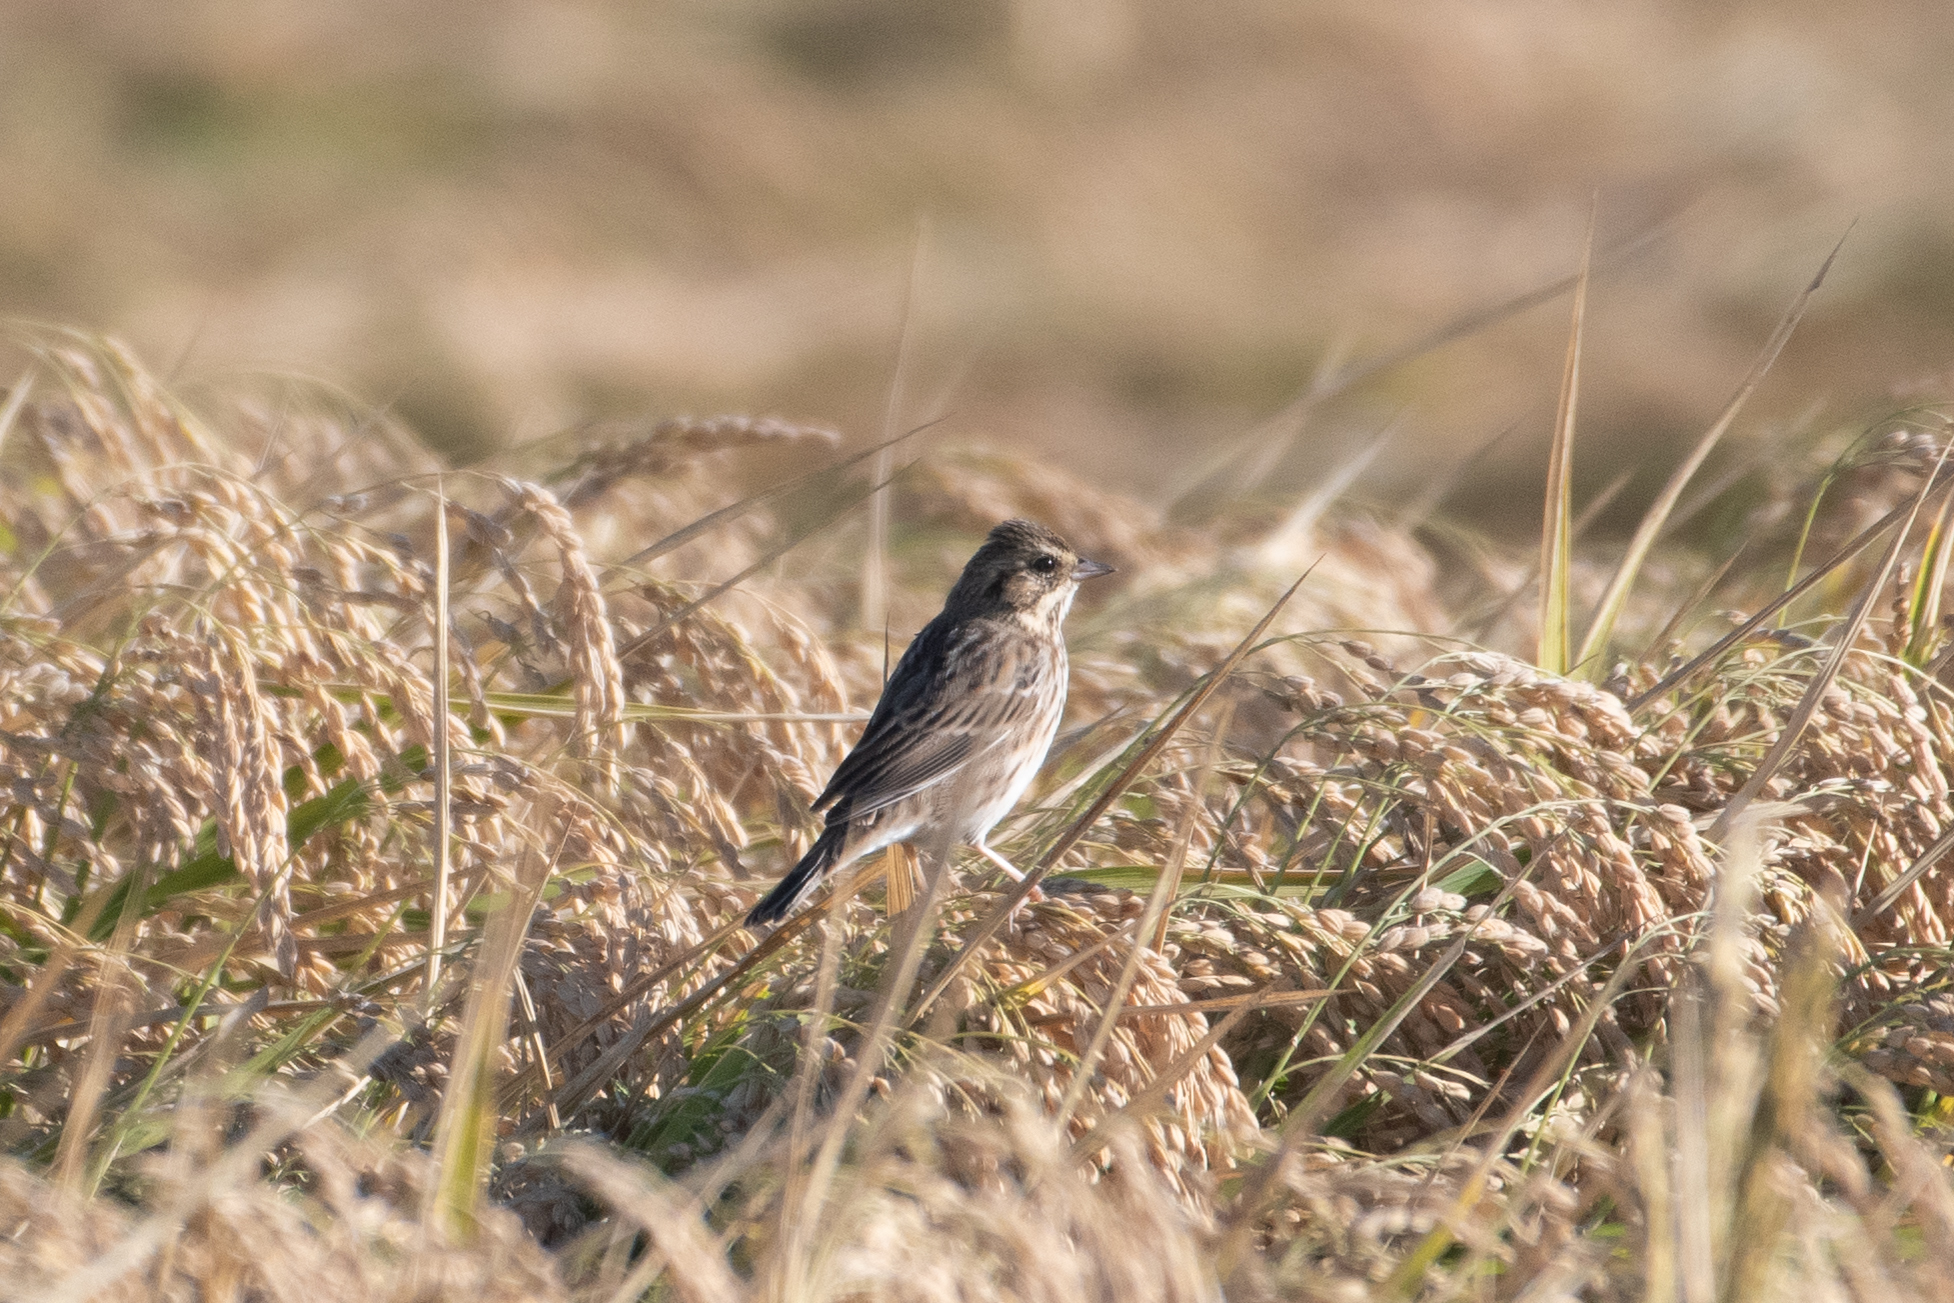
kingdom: Animalia
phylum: Chordata
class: Aves
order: Passeriformes
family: Passerellidae
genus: Passerculus
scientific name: Passerculus sandwichensis
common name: Savannah sparrow
